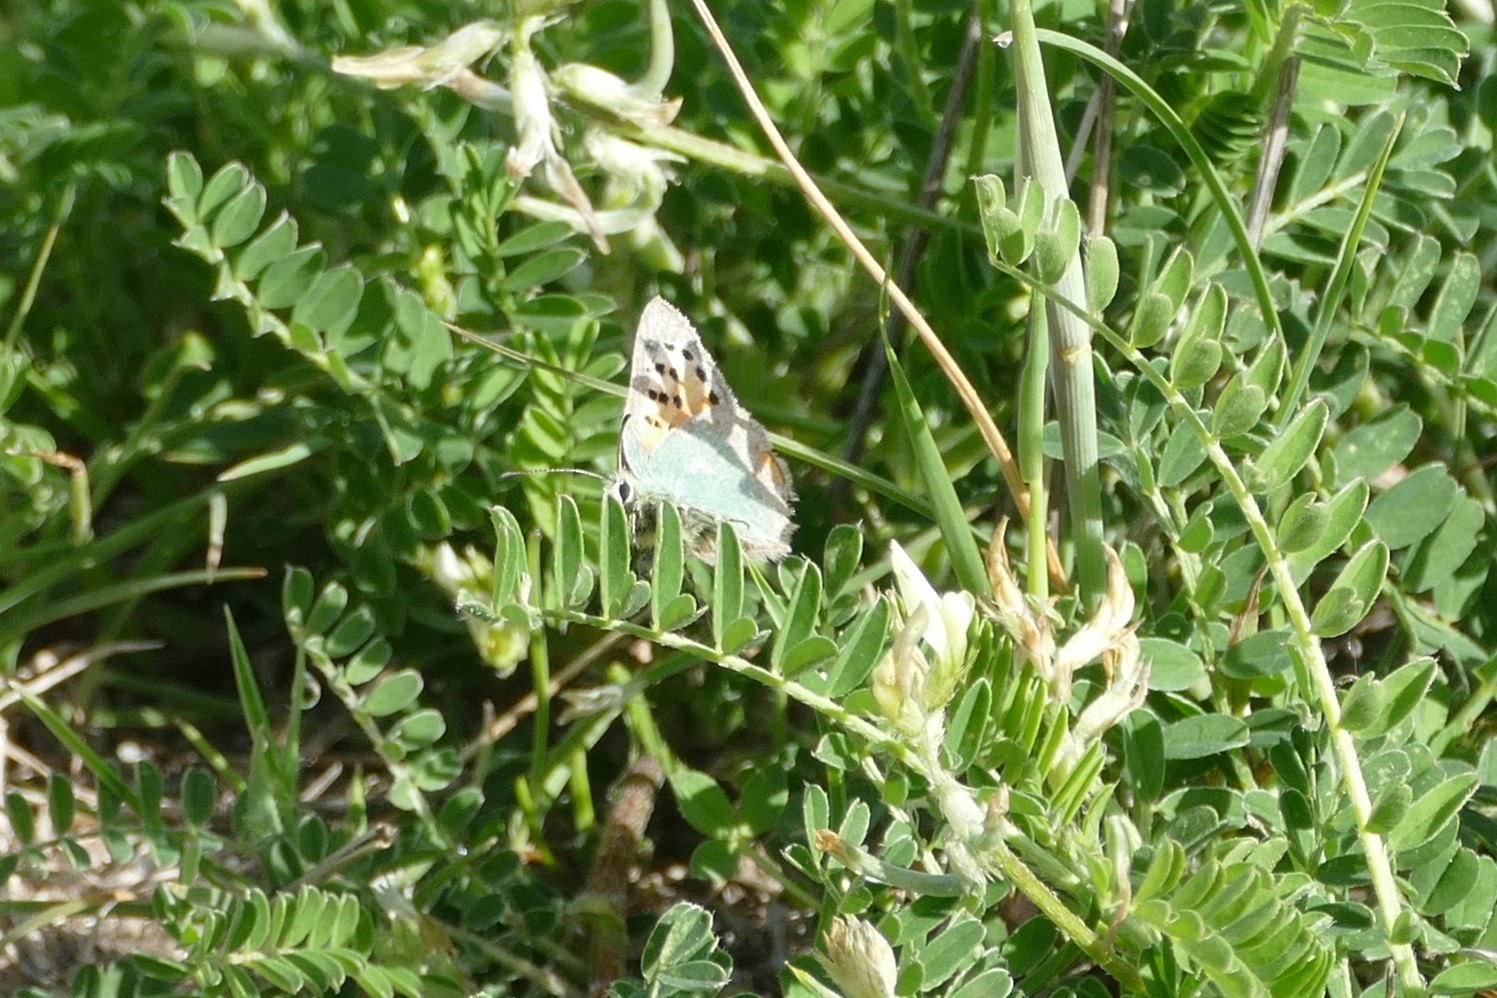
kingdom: Animalia
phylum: Arthropoda
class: Insecta
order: Lepidoptera
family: Lycaenidae
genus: Tomares
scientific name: Tomares ballus
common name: Provence hairstreak
